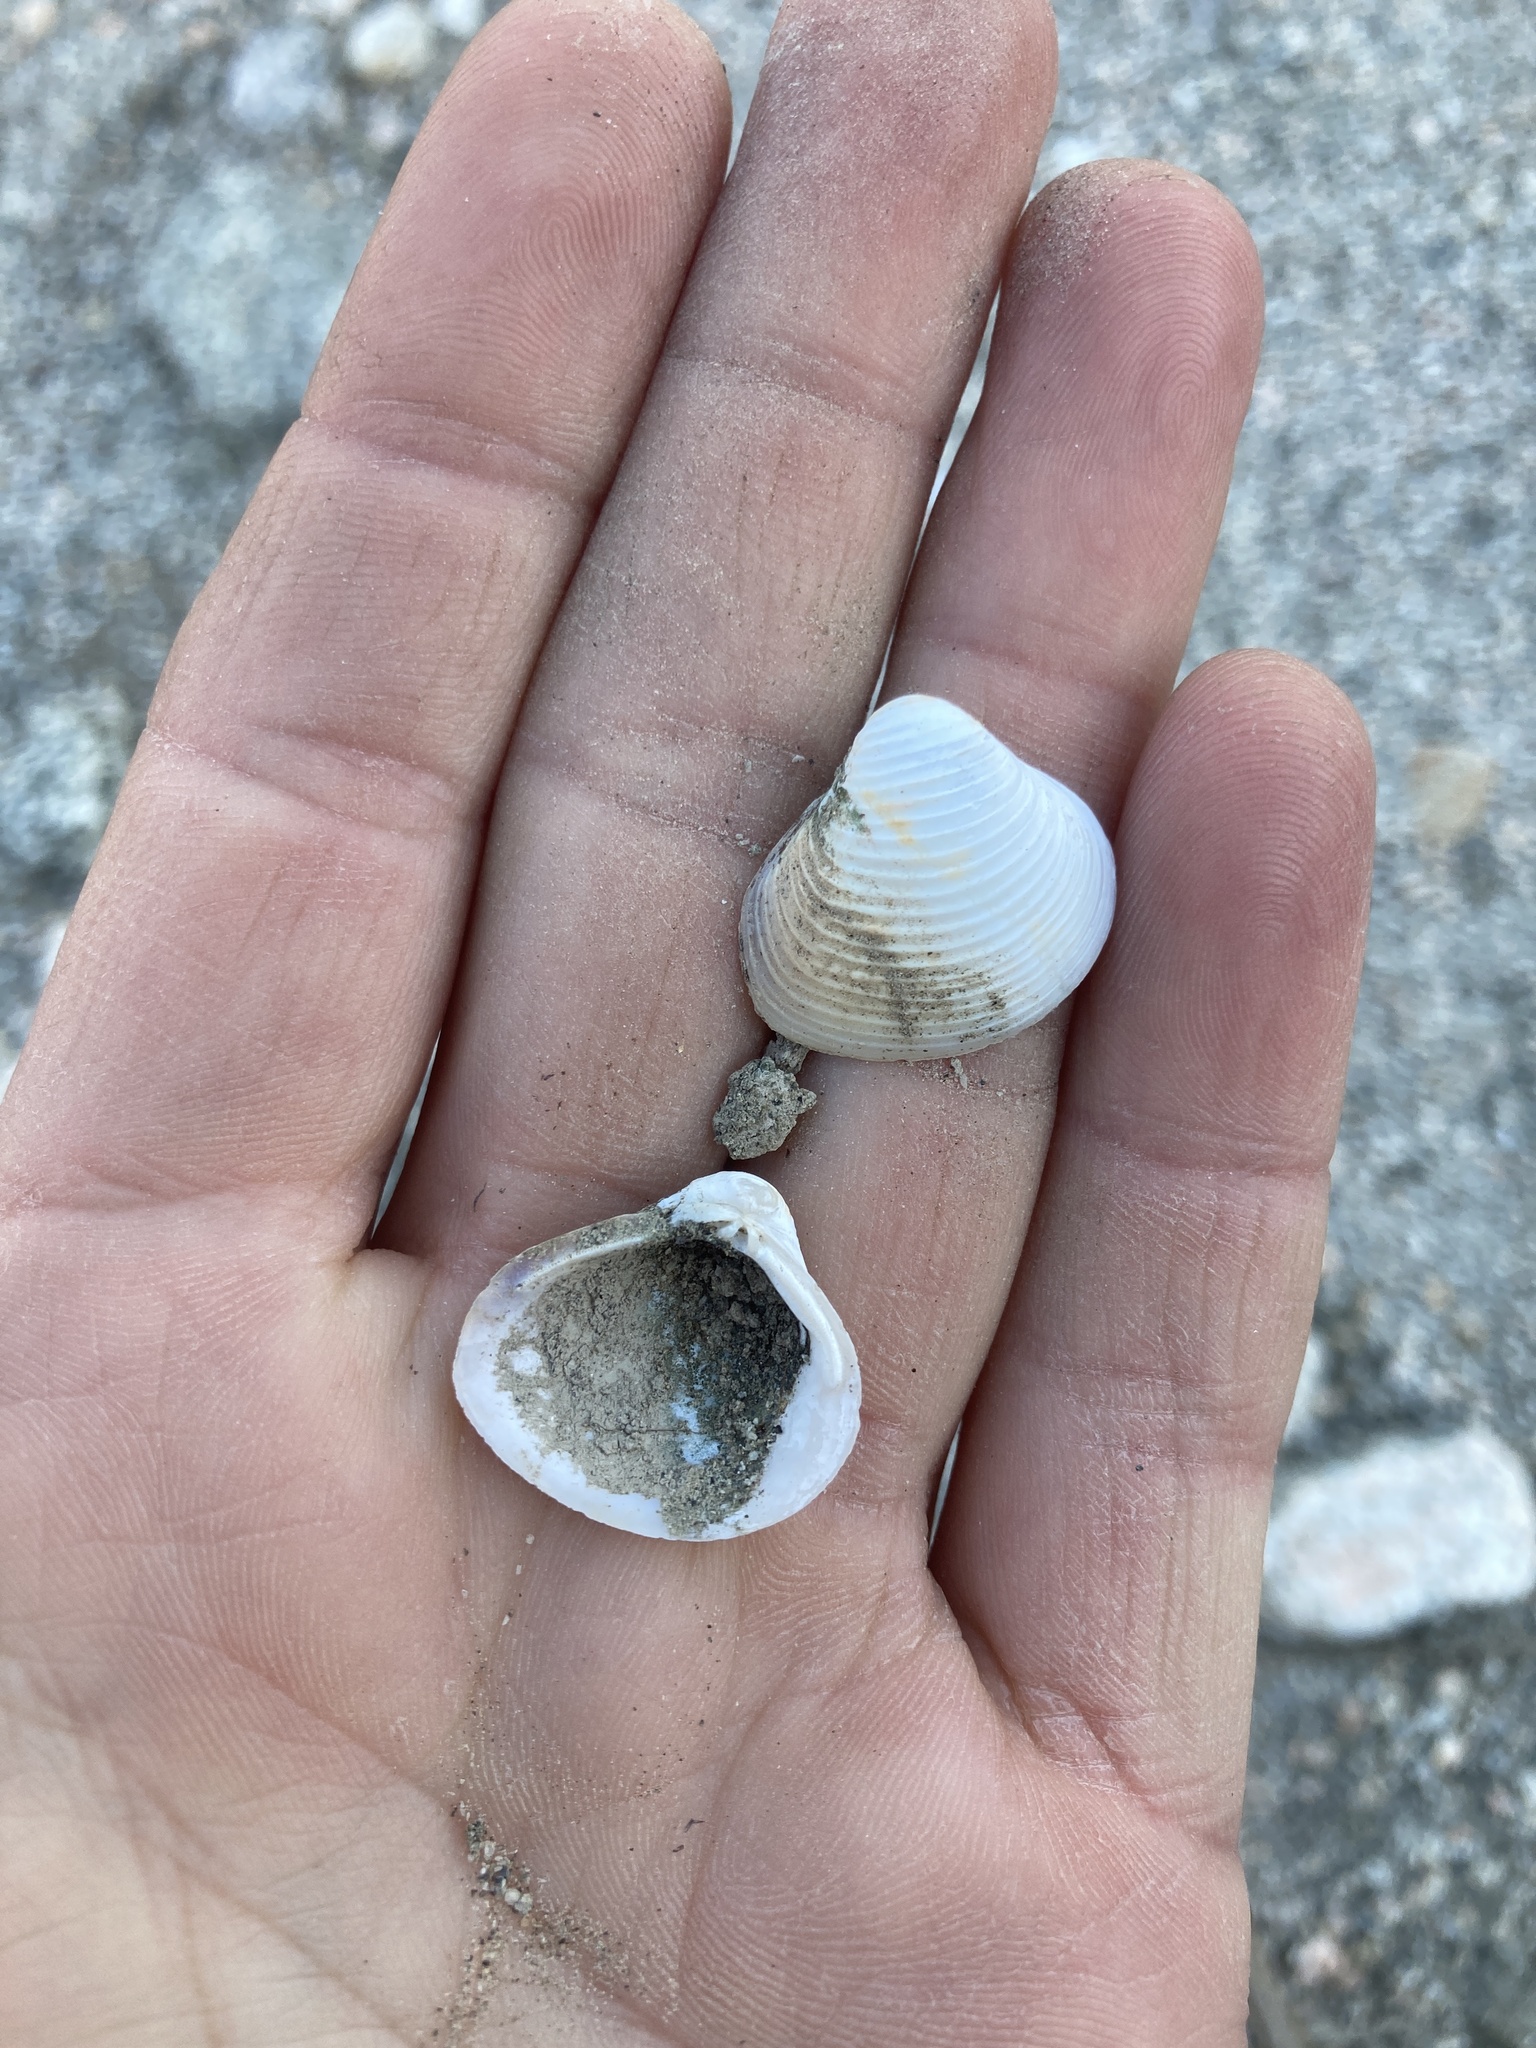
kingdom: Animalia
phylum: Mollusca
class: Bivalvia
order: Venerida
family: Cyrenidae
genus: Corbicula
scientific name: Corbicula fluminea
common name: Asian clam
